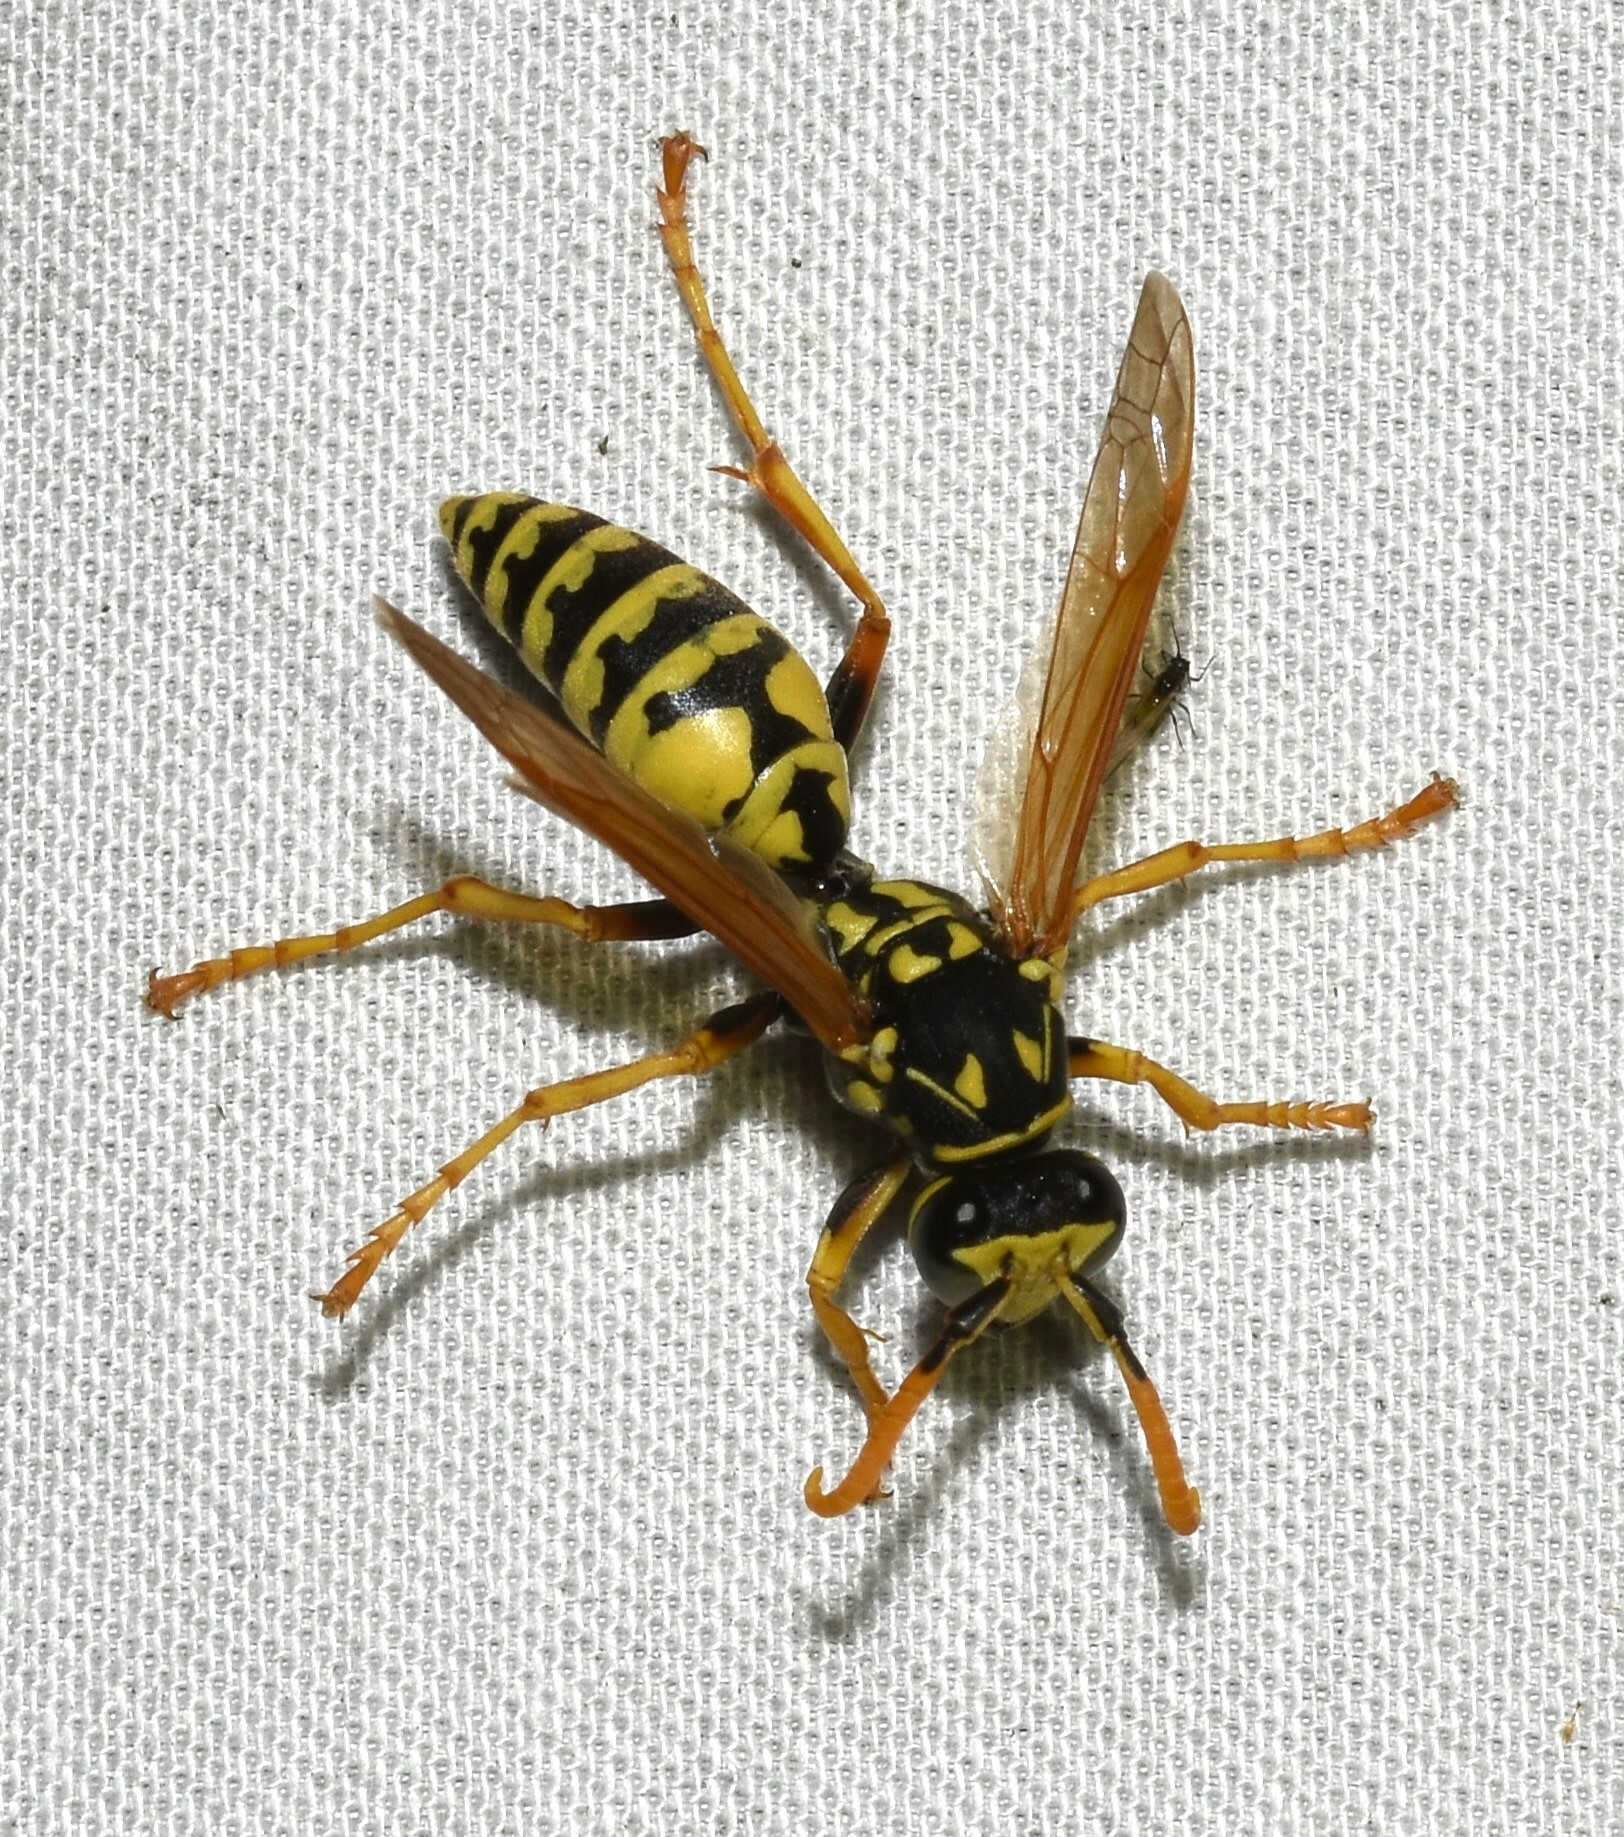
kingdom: Animalia
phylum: Arthropoda
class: Insecta
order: Hymenoptera
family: Eumenidae
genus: Polistes
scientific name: Polistes dominula
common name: Paper wasp
